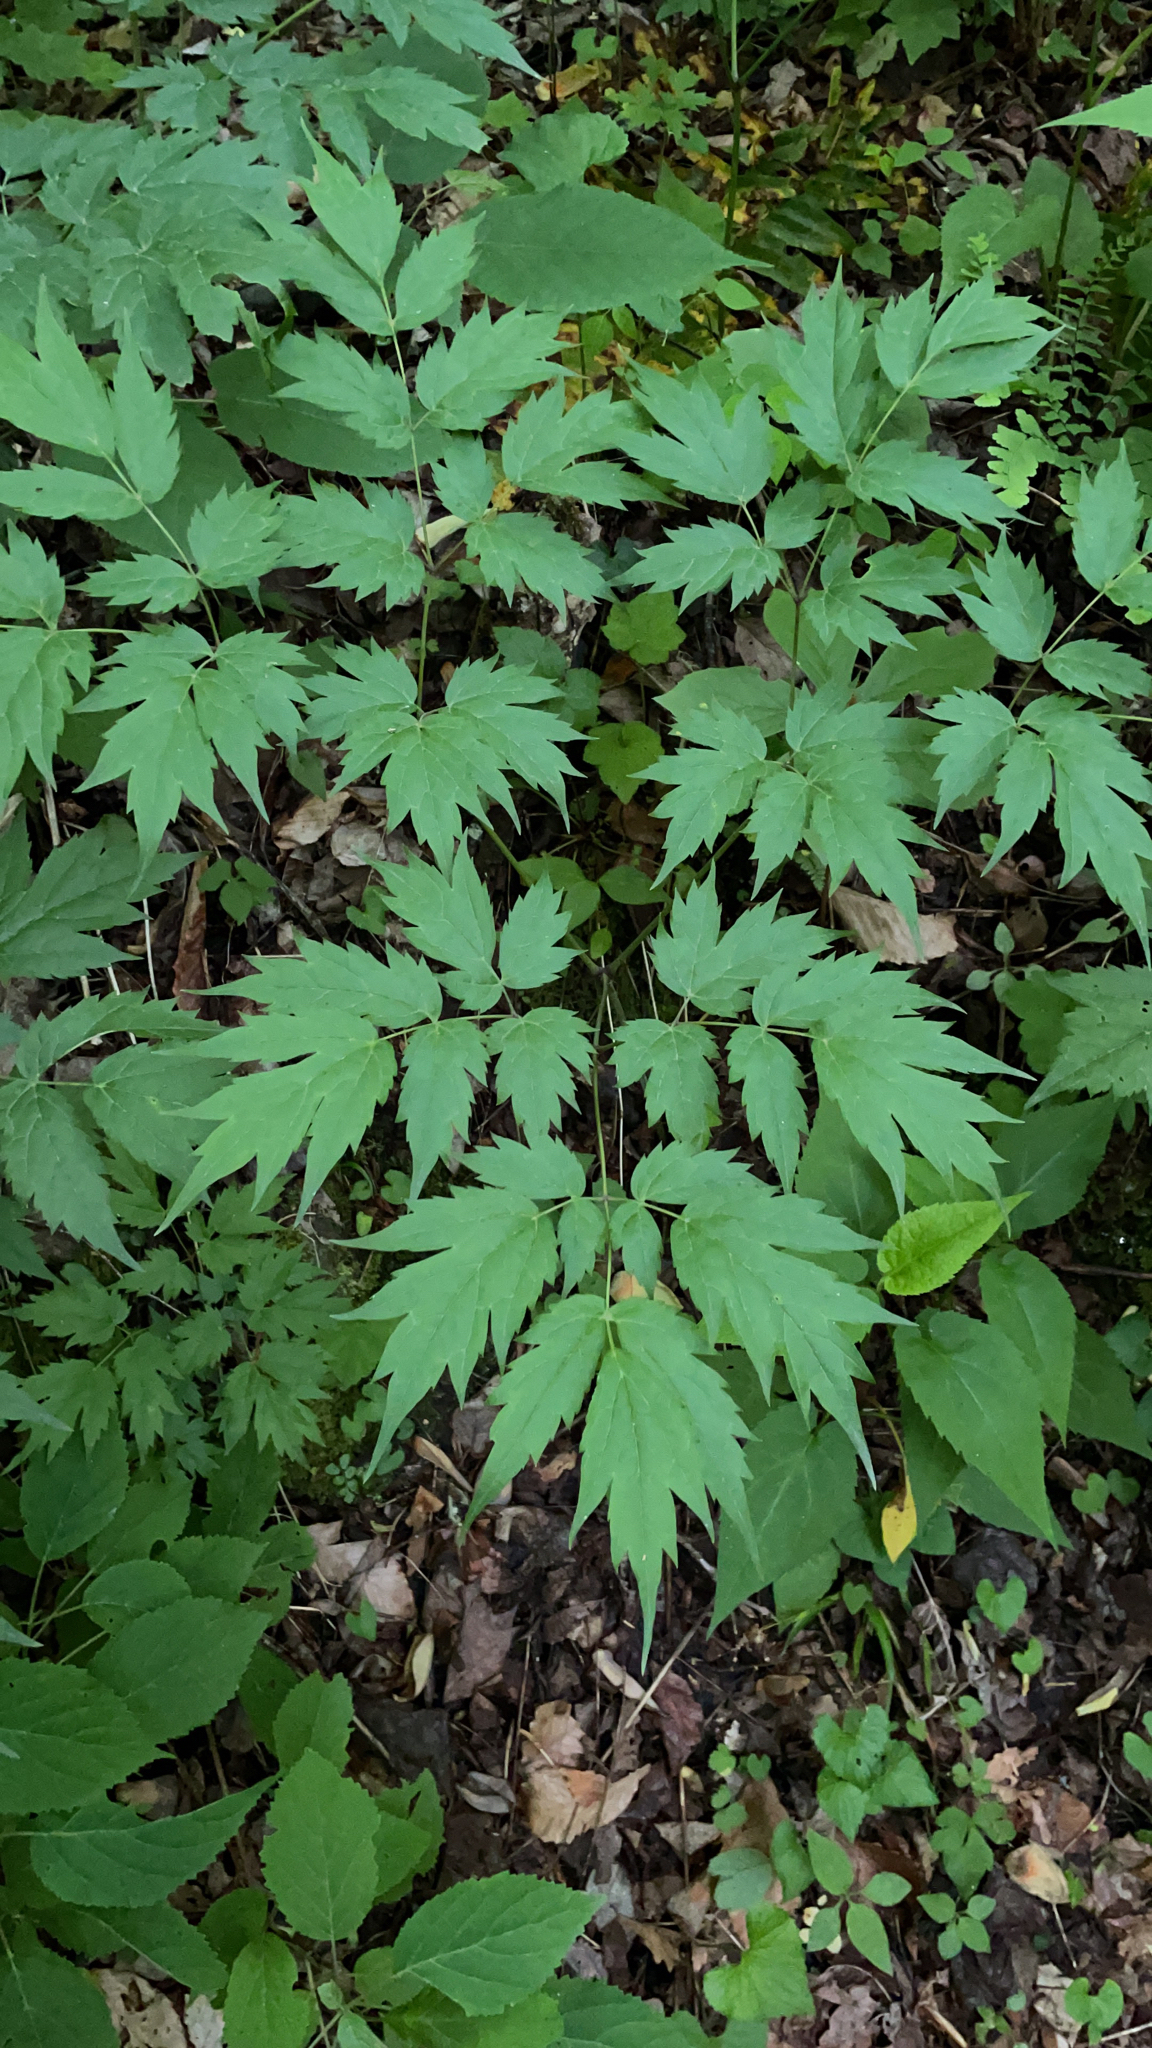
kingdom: Plantae
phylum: Tracheophyta
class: Magnoliopsida
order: Ranunculales
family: Ranunculaceae
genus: Actaea
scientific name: Actaea racemosa
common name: Black cohosh
